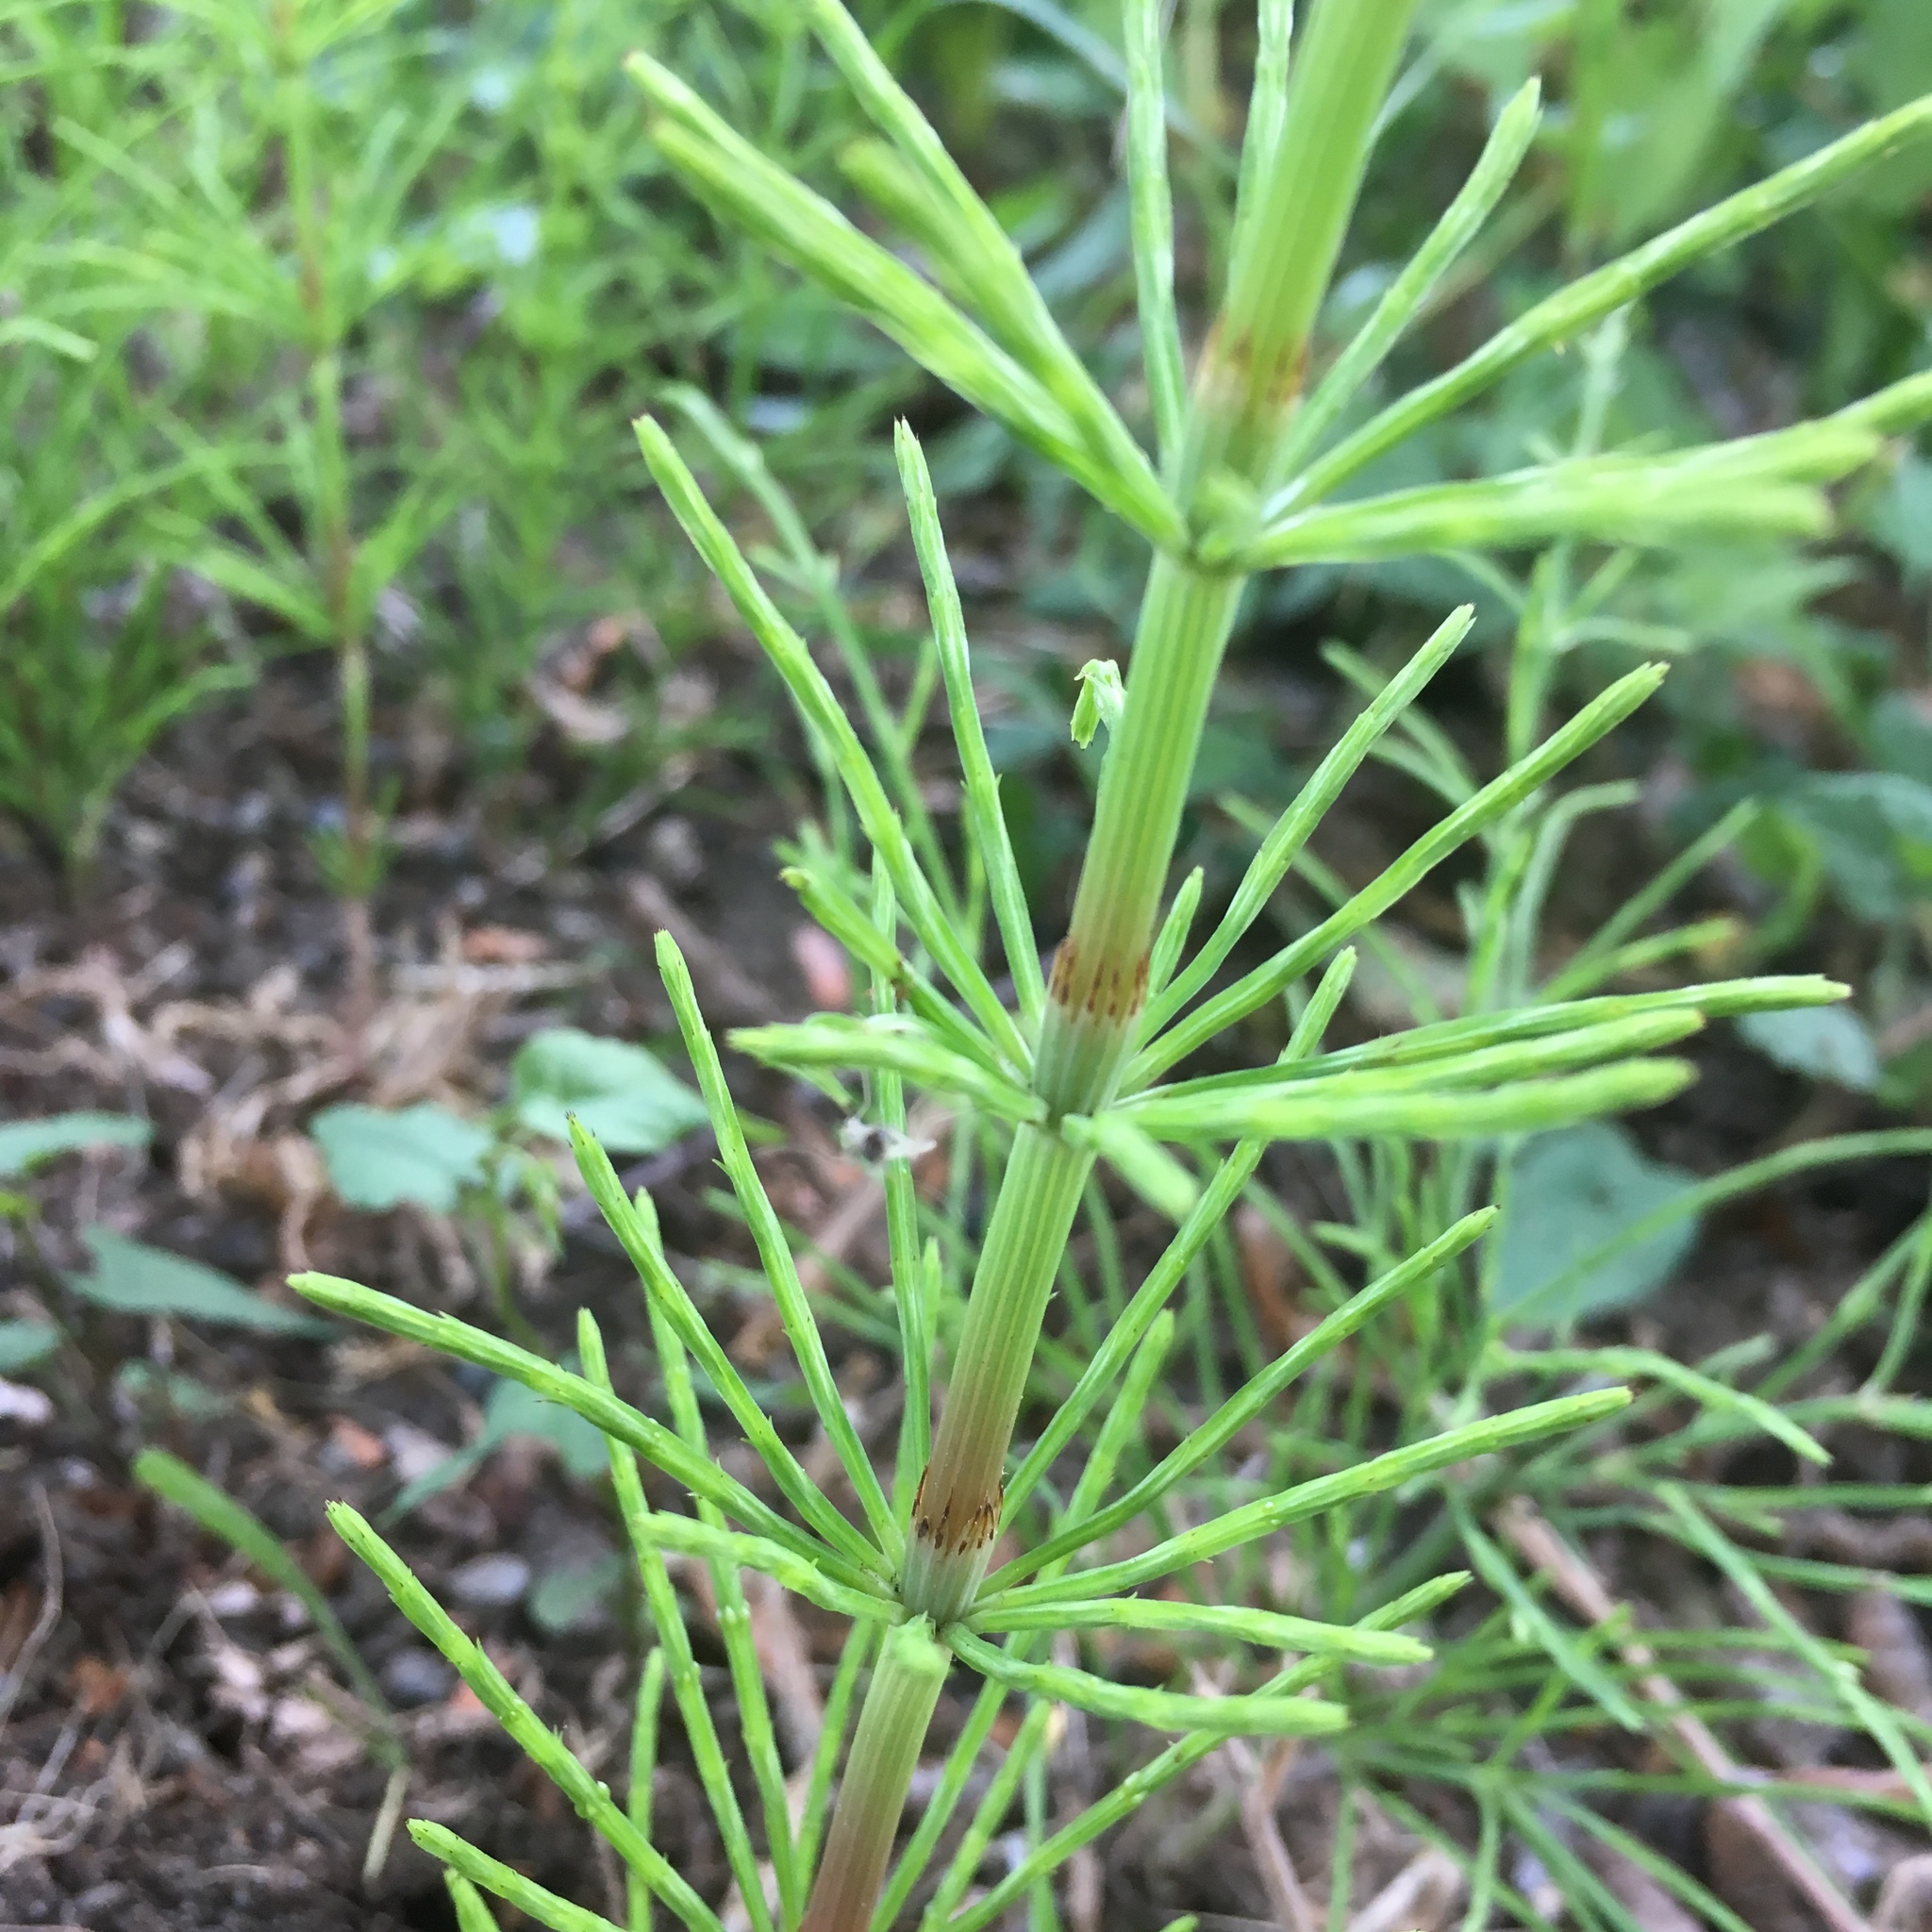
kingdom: Plantae
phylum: Tracheophyta
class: Polypodiopsida
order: Equisetales
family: Equisetaceae
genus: Equisetum
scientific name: Equisetum arvense
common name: Field horsetail
